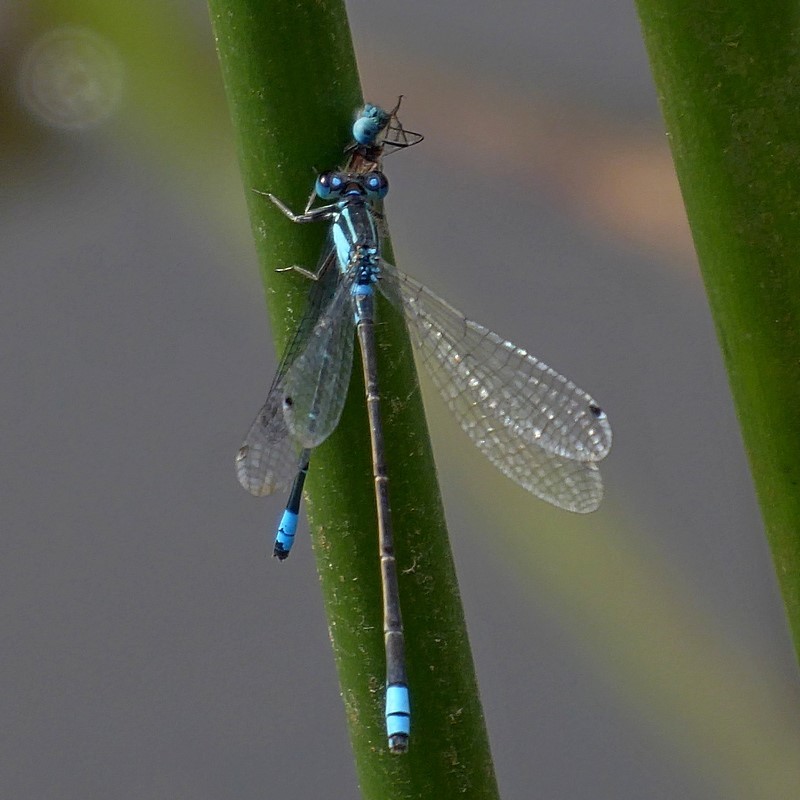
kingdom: Animalia
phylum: Arthropoda
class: Insecta
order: Odonata
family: Coenagrionidae
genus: Ischnura
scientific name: Ischnura heterosticta
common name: Common bluetail
